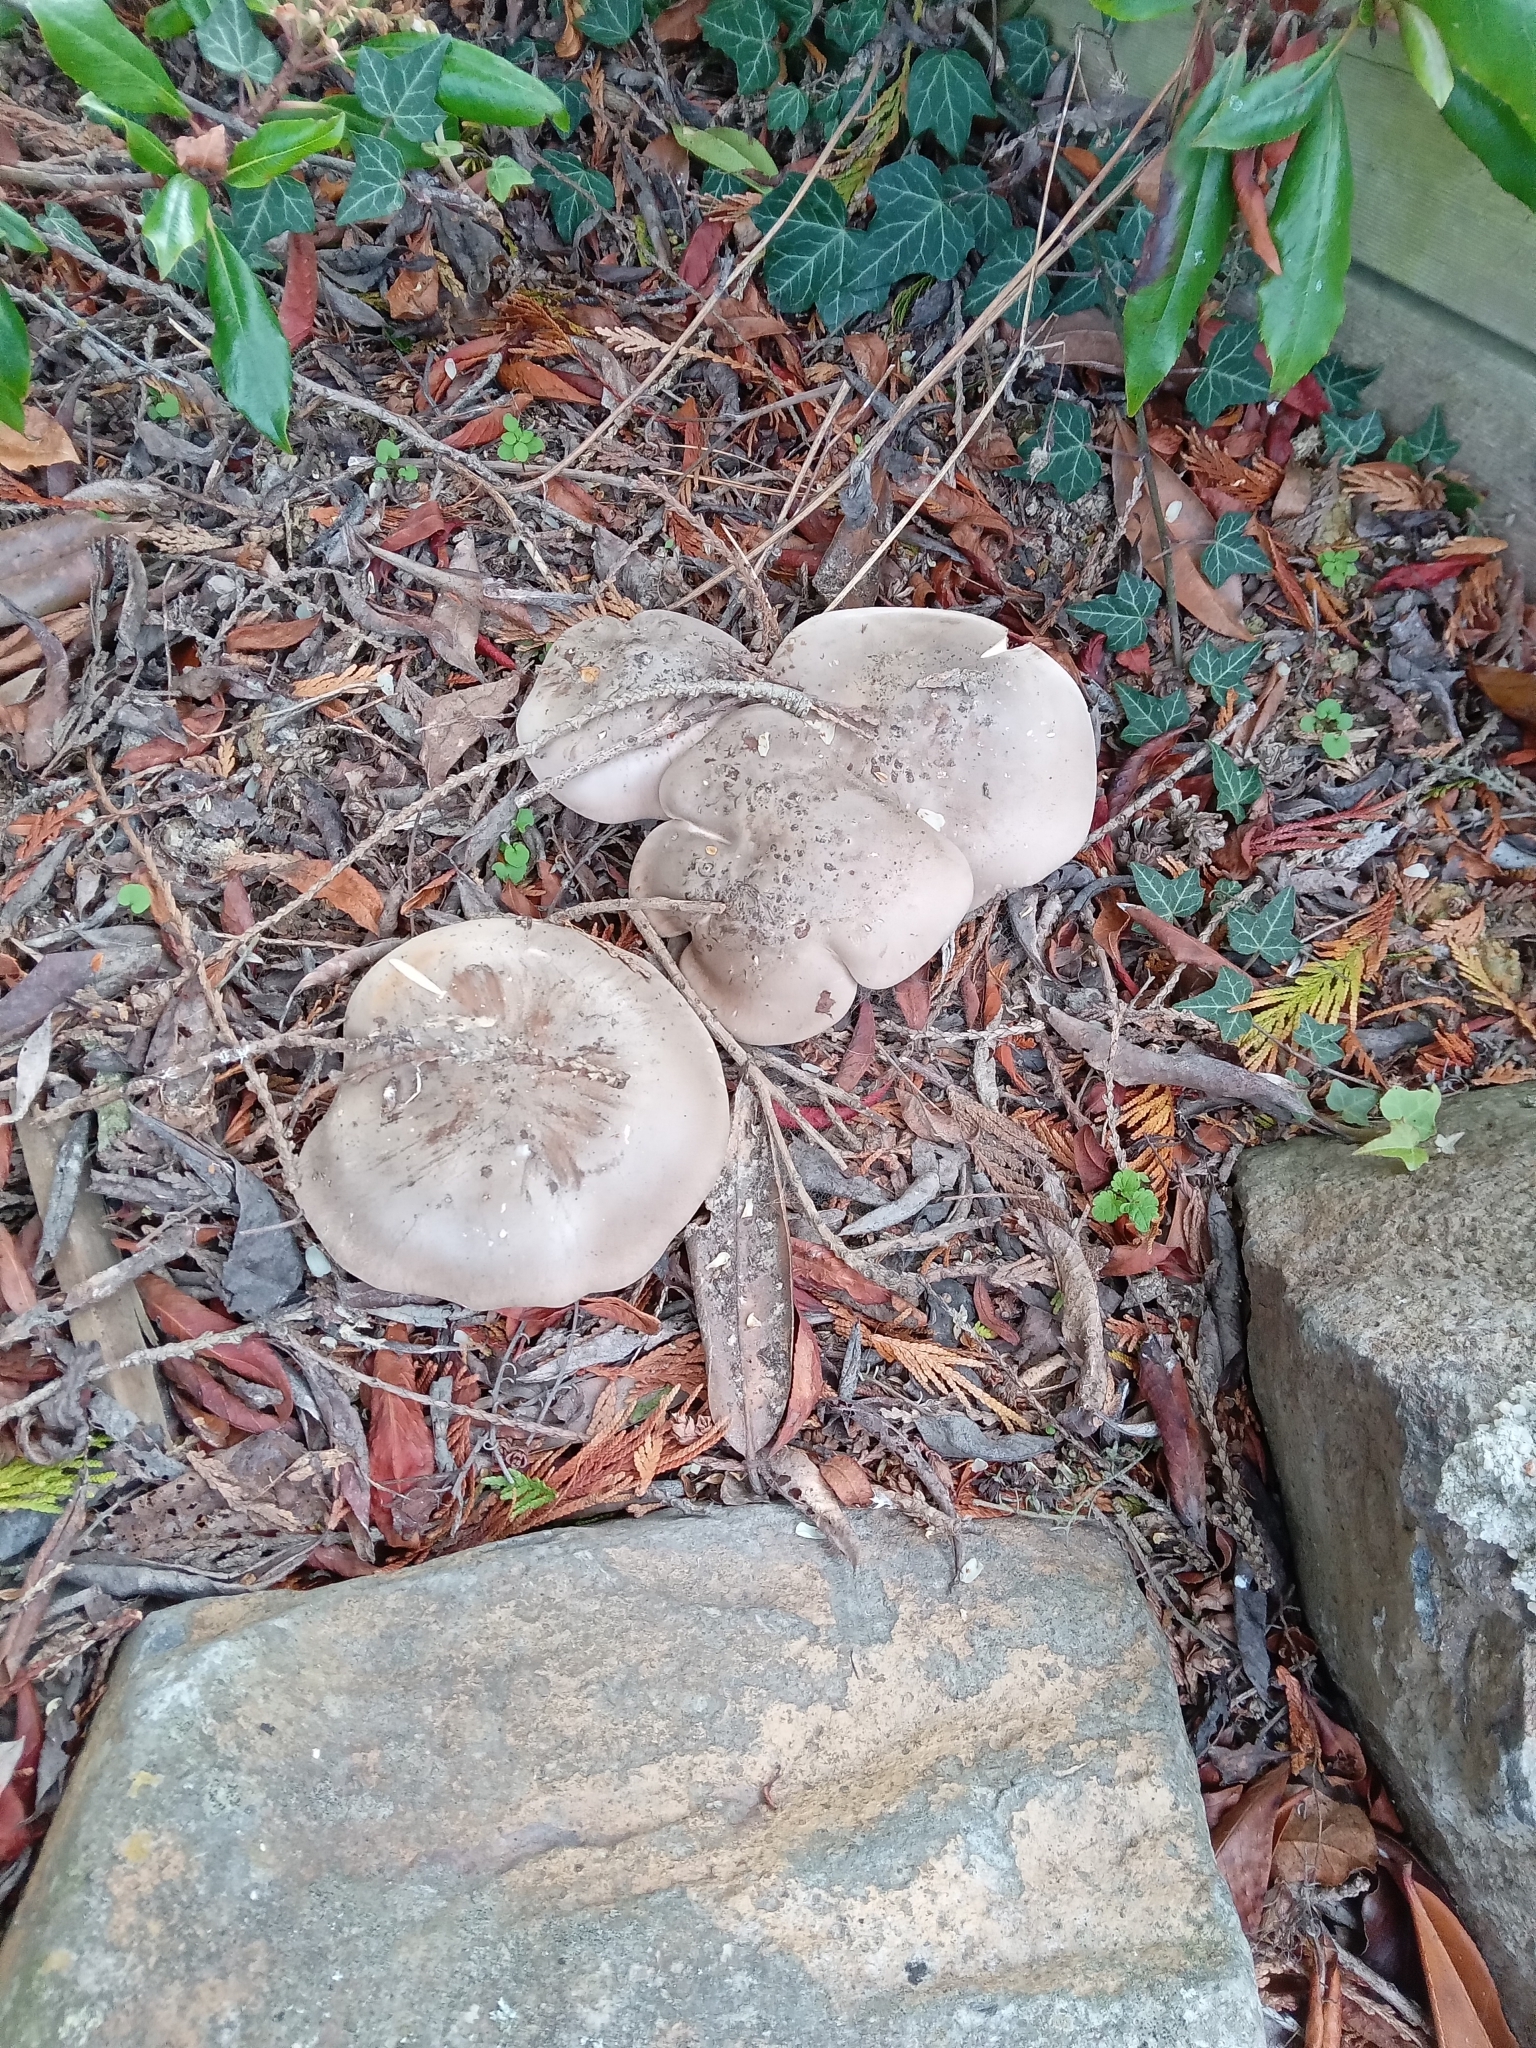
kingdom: Fungi
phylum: Basidiomycota
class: Agaricomycetes
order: Agaricales
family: Tricholomataceae
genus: Clitocybe
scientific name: Clitocybe nebularis
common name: Clouded agaric
